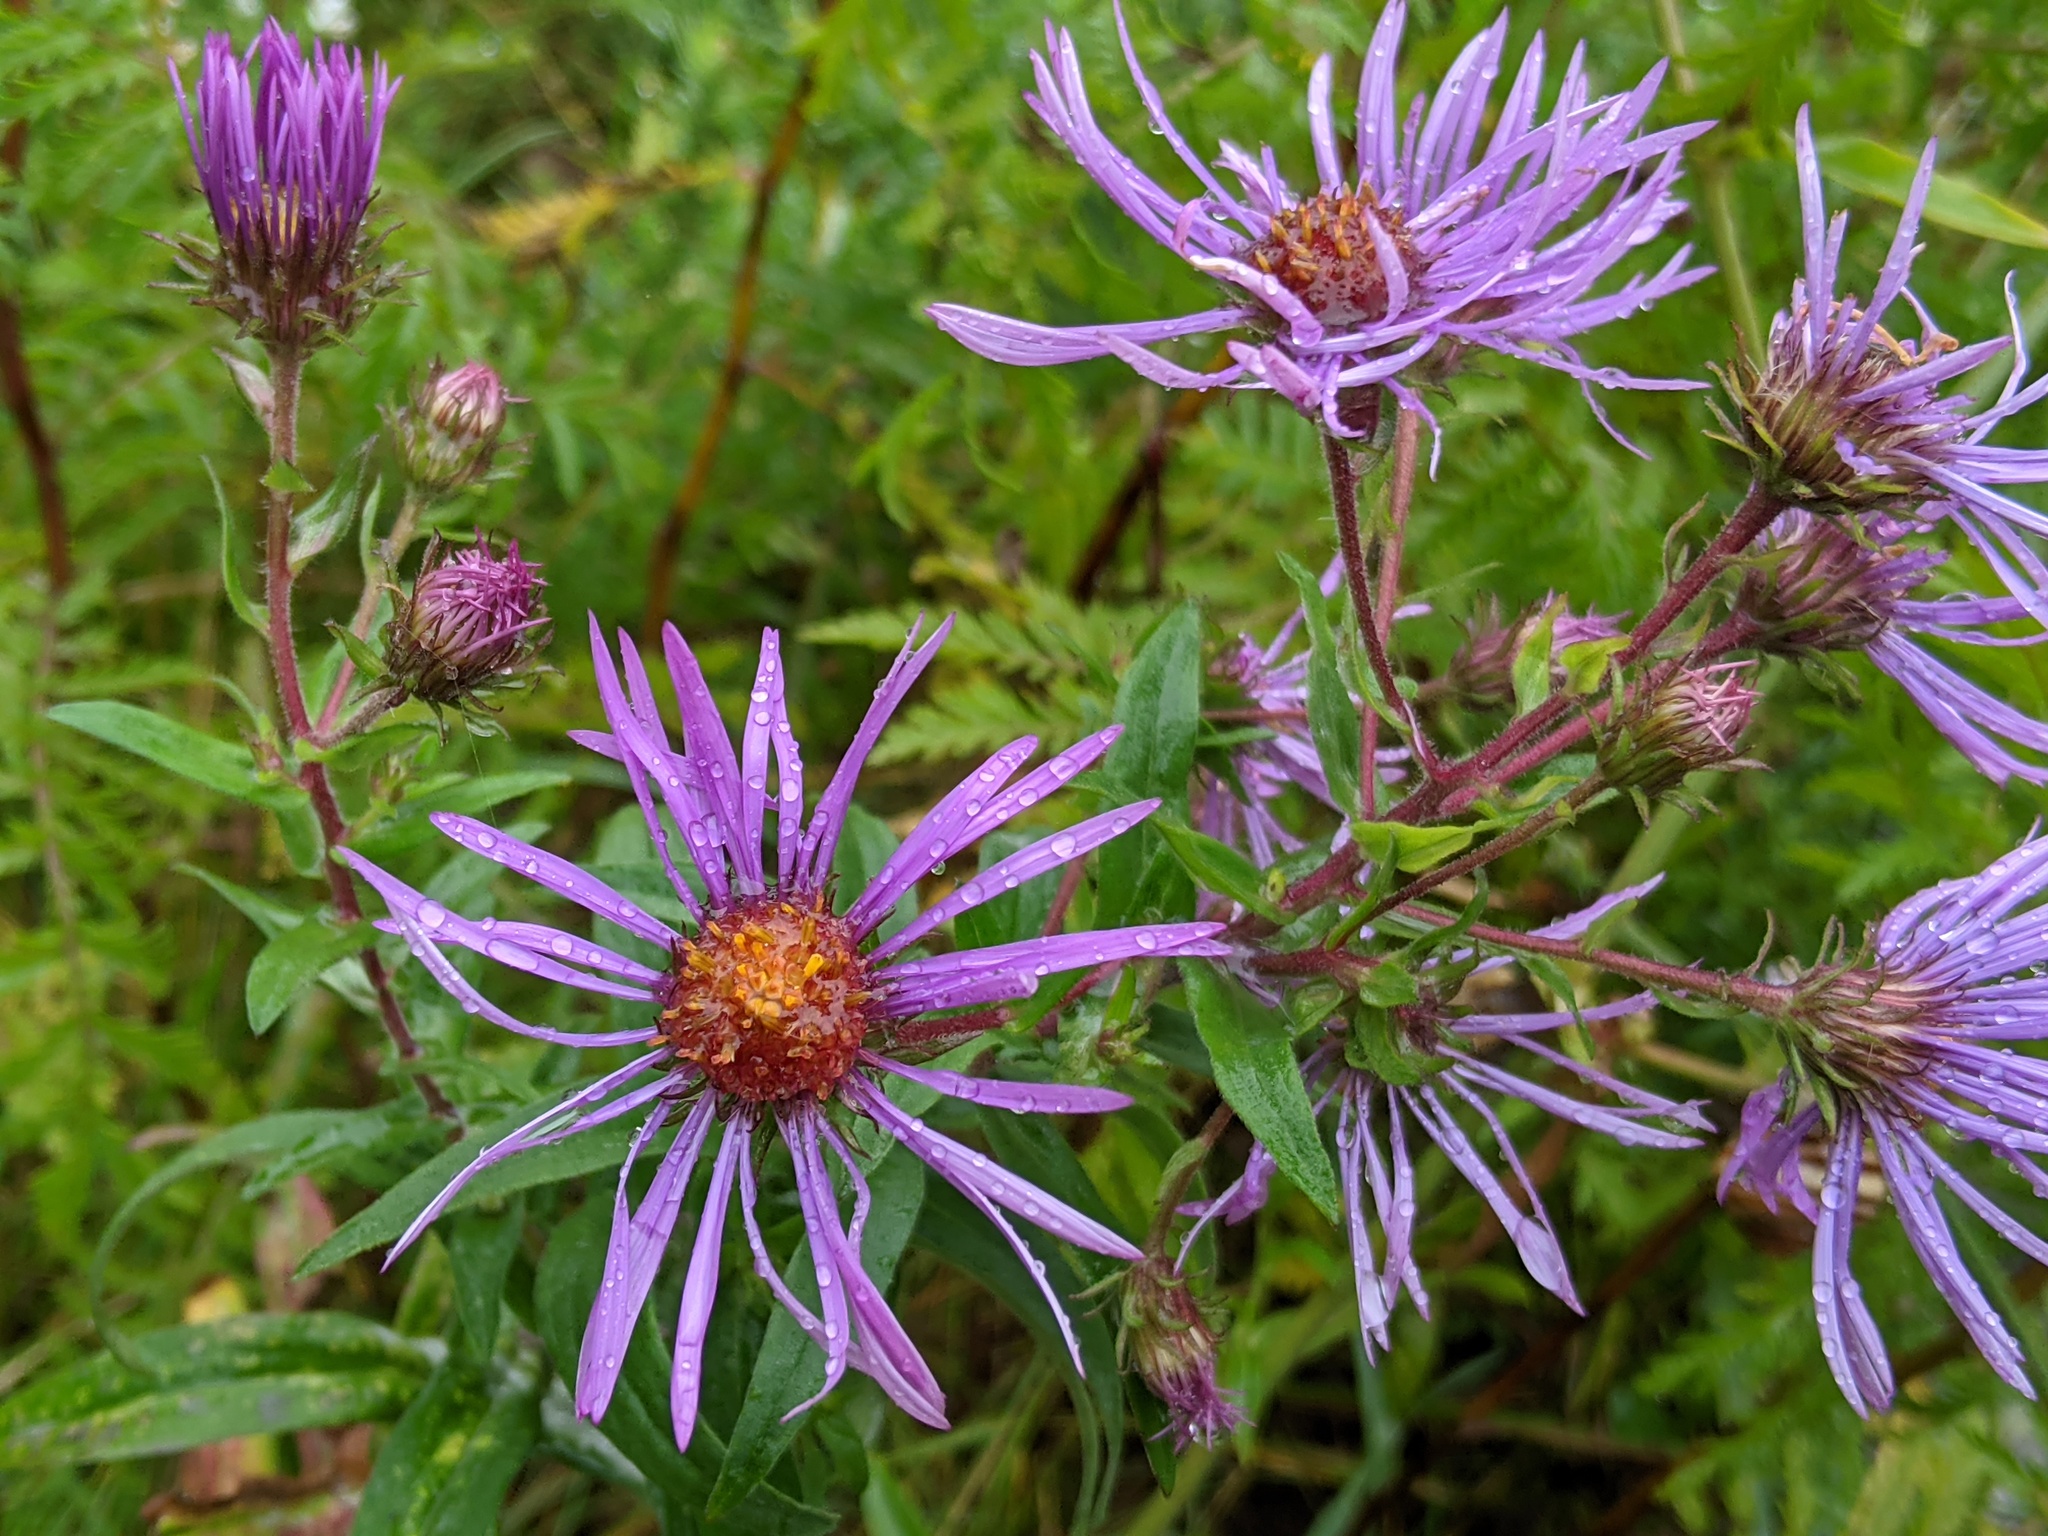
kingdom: Plantae
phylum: Tracheophyta
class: Magnoliopsida
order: Asterales
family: Asteraceae
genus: Symphyotrichum
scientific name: Symphyotrichum novae-angliae
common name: Michaelmas daisy
